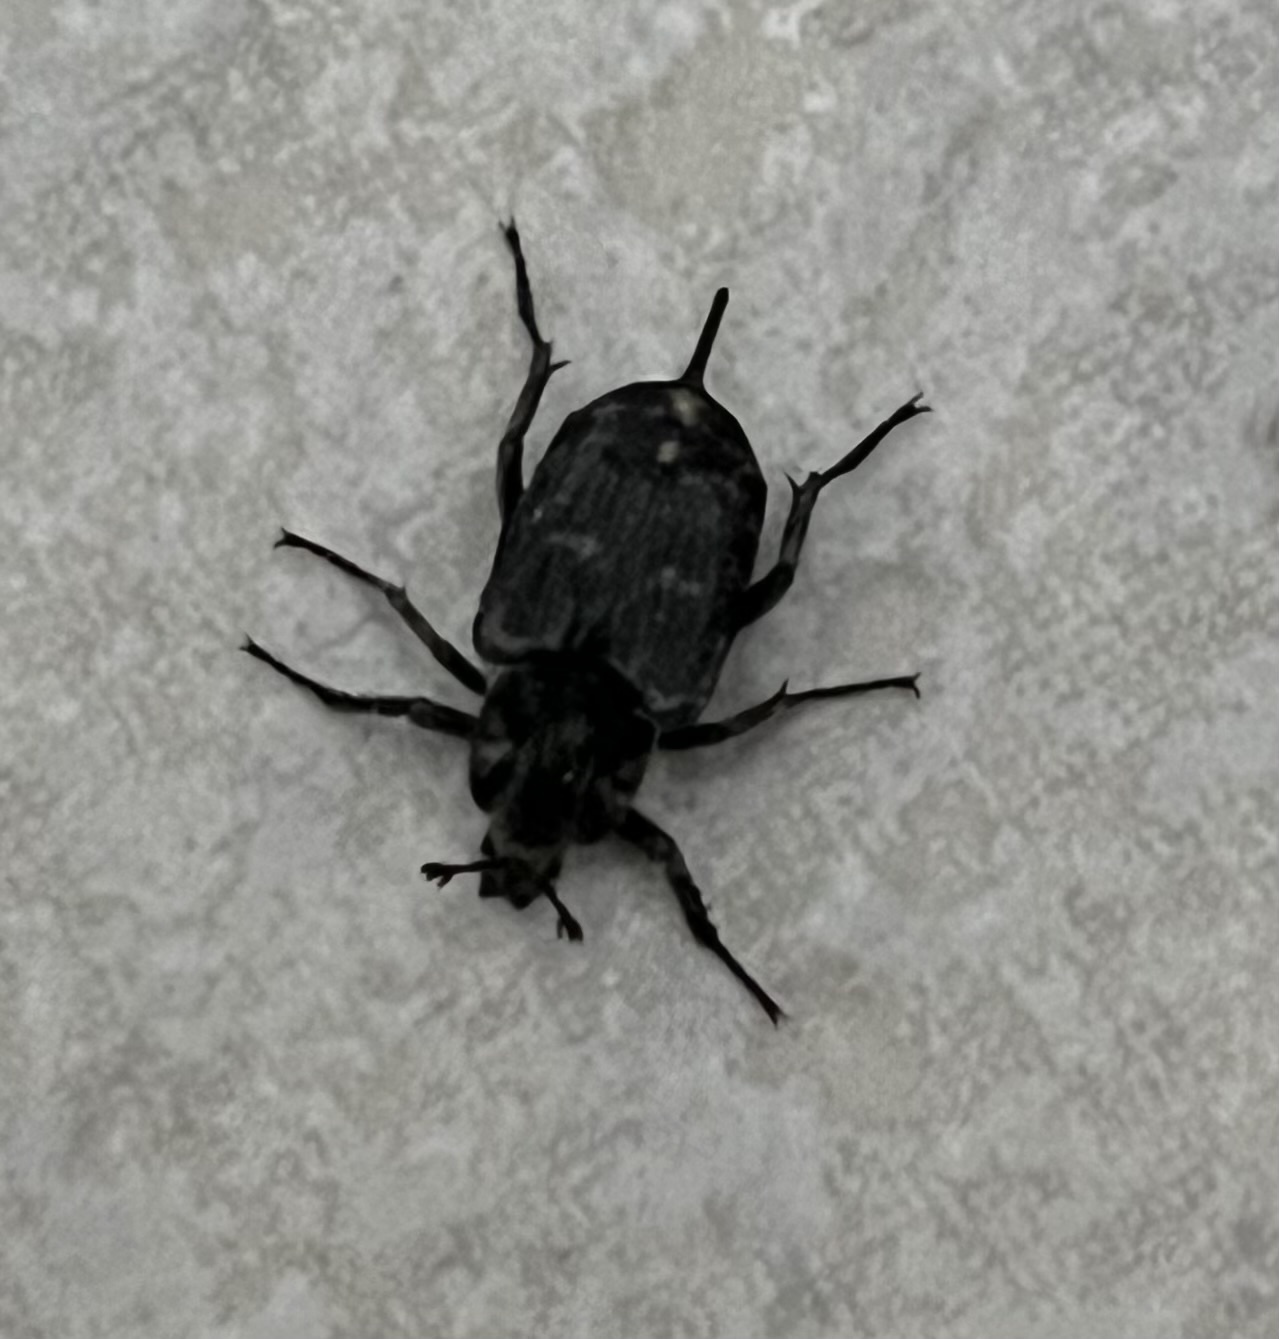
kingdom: Animalia
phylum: Arthropoda
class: Insecta
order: Coleoptera
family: Scarabaeidae
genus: Valgus
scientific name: Valgus hemipterus
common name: Bug flower chafer
